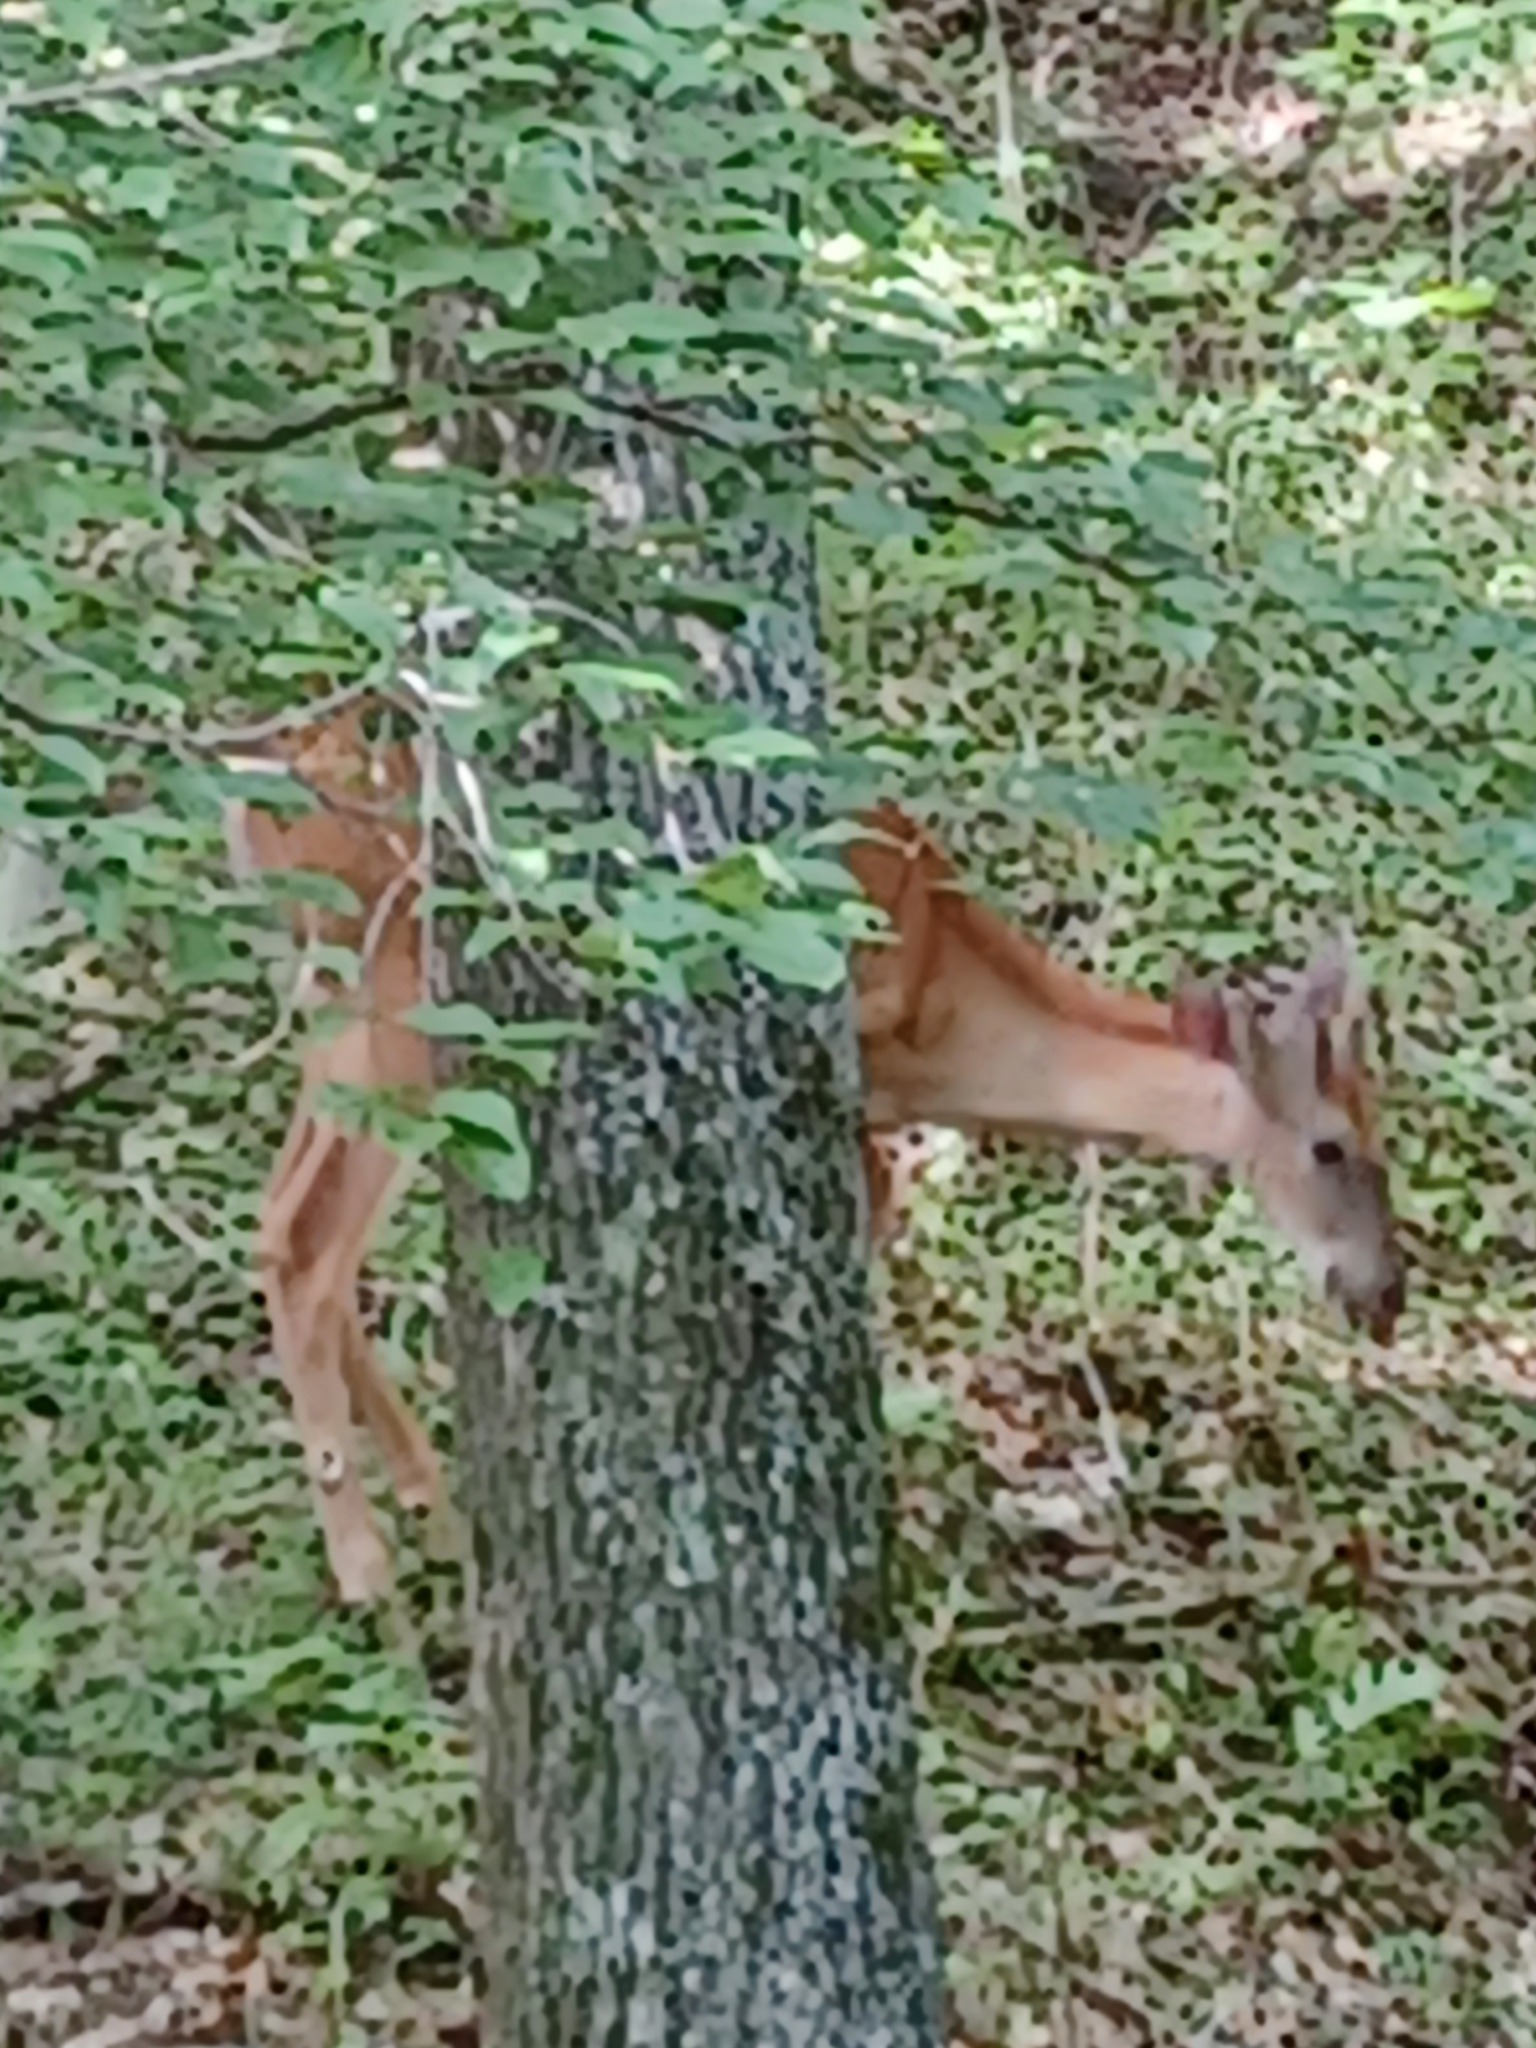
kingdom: Animalia
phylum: Chordata
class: Mammalia
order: Artiodactyla
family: Cervidae
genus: Odocoileus
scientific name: Odocoileus virginianus
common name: White-tailed deer
